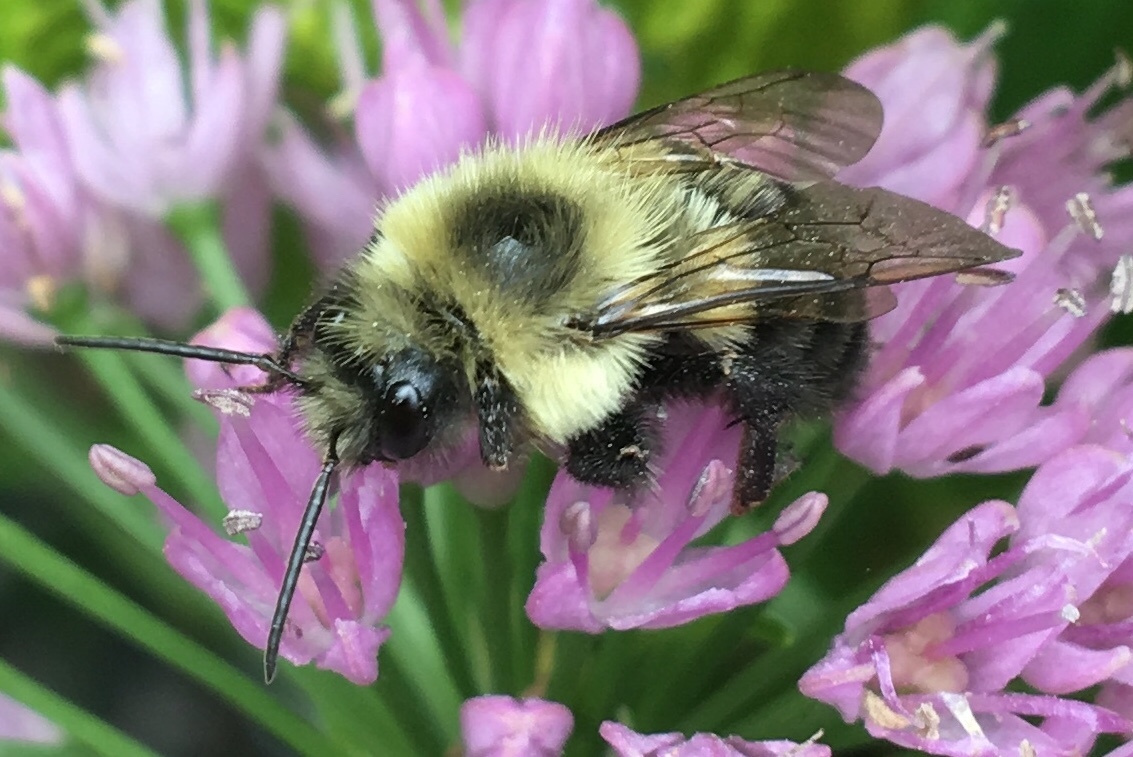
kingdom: Animalia
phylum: Arthropoda
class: Insecta
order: Hymenoptera
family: Apidae
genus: Bombus
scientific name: Bombus impatiens
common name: Common eastern bumble bee
